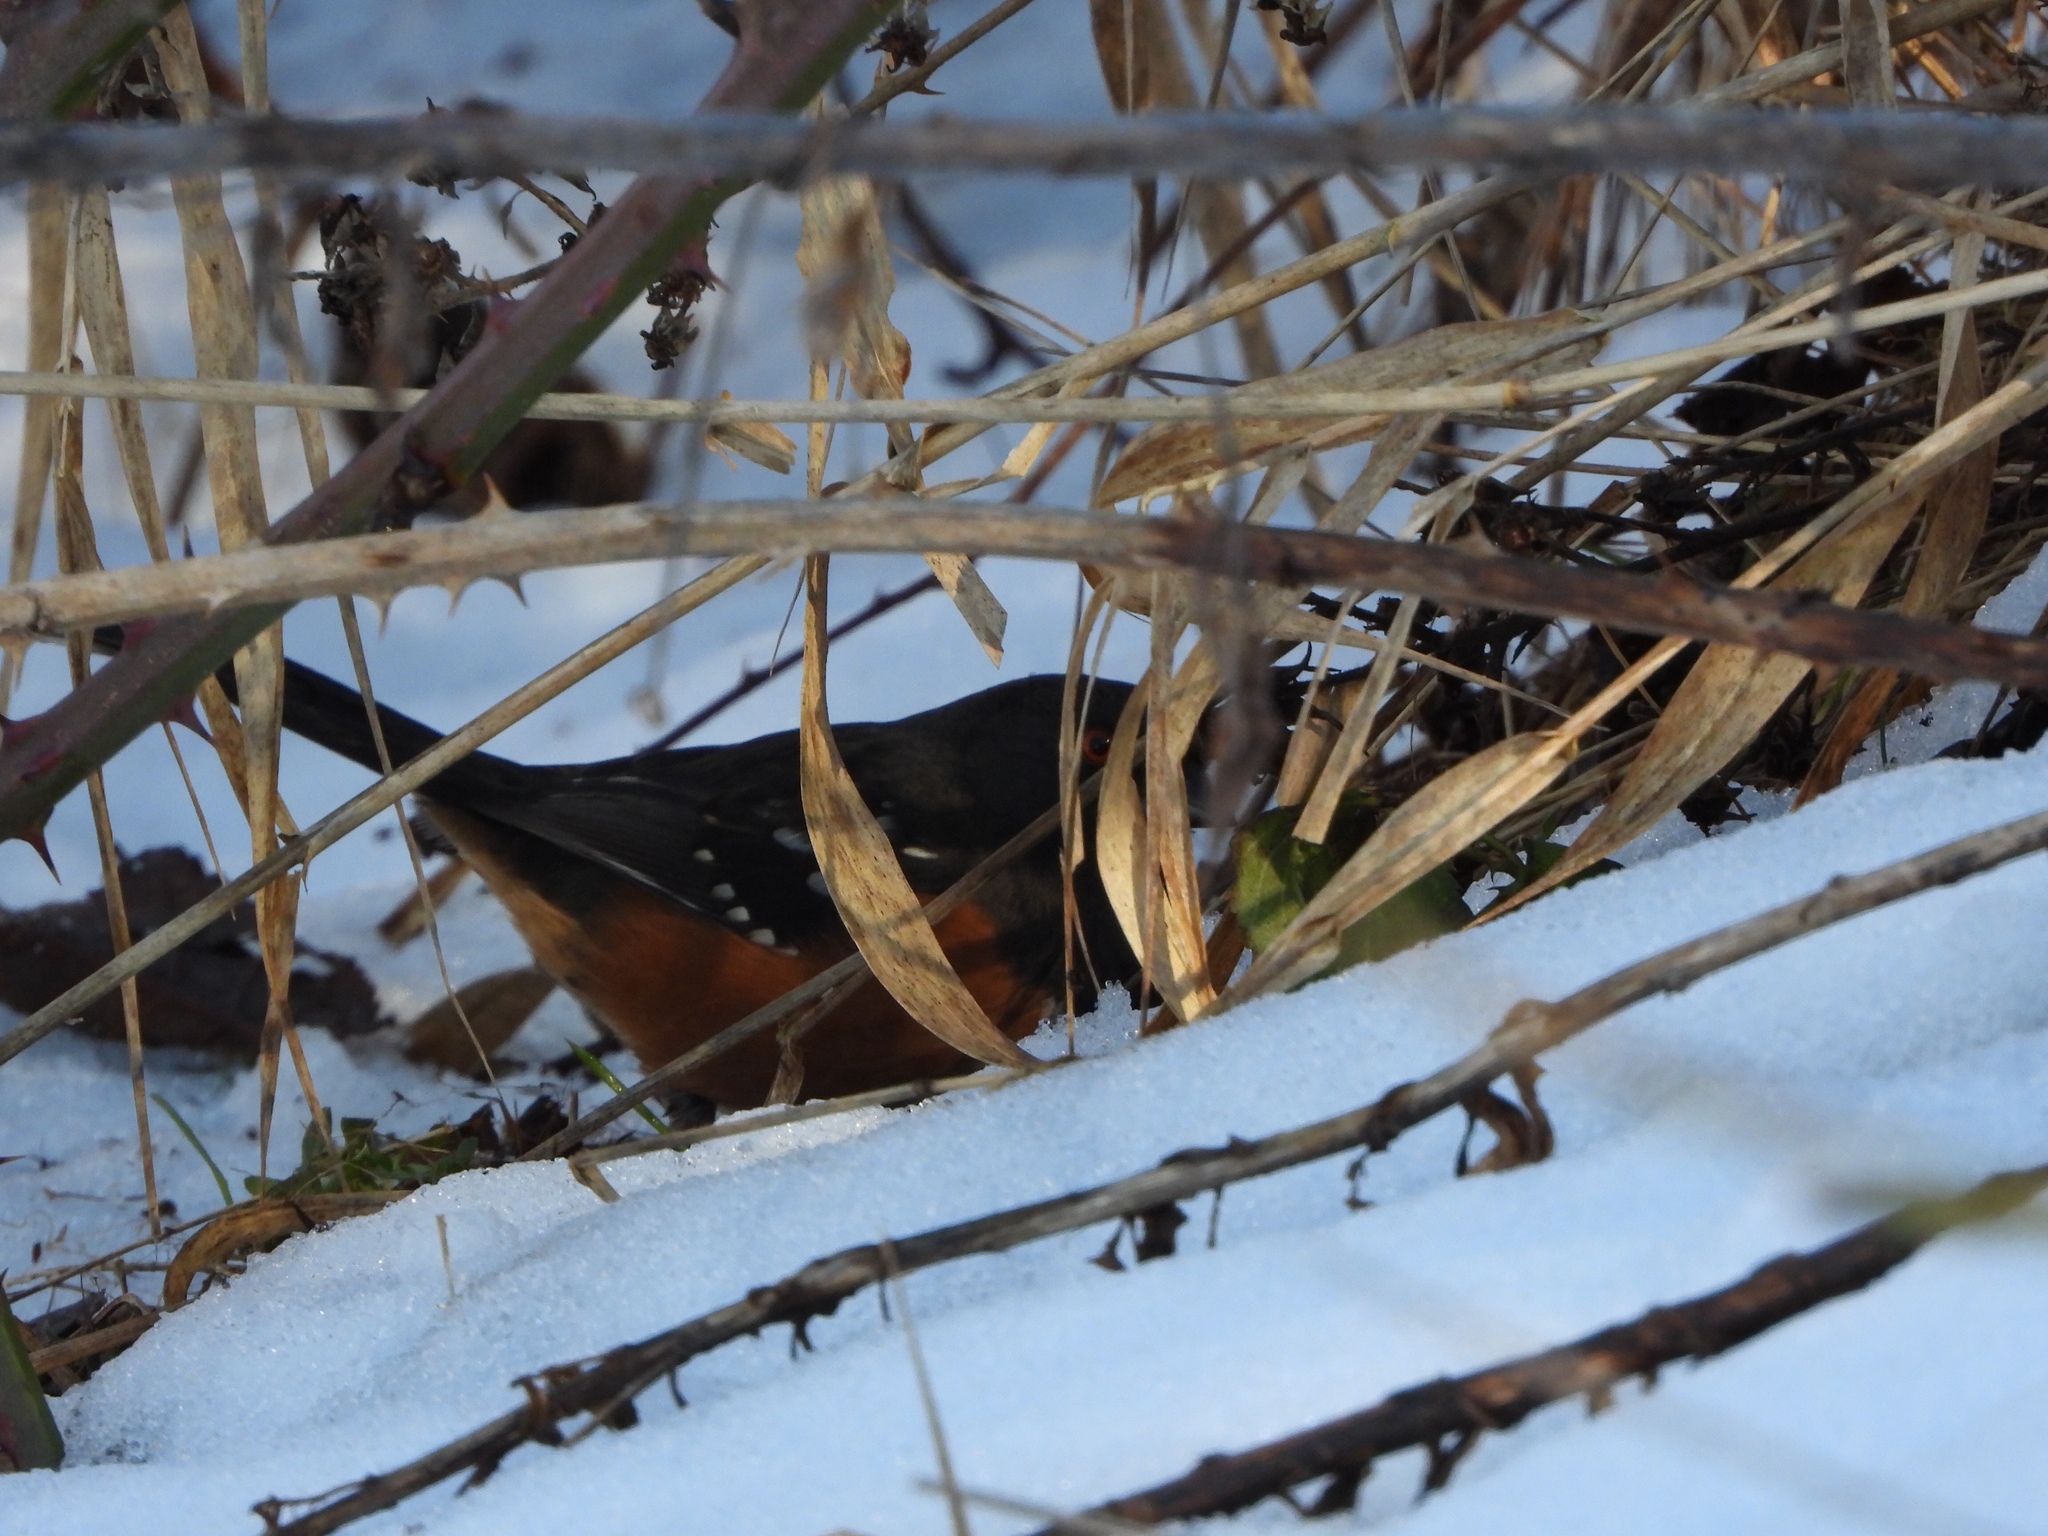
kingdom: Animalia
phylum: Chordata
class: Aves
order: Passeriformes
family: Passerellidae
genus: Pipilo
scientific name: Pipilo maculatus
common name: Spotted towhee
